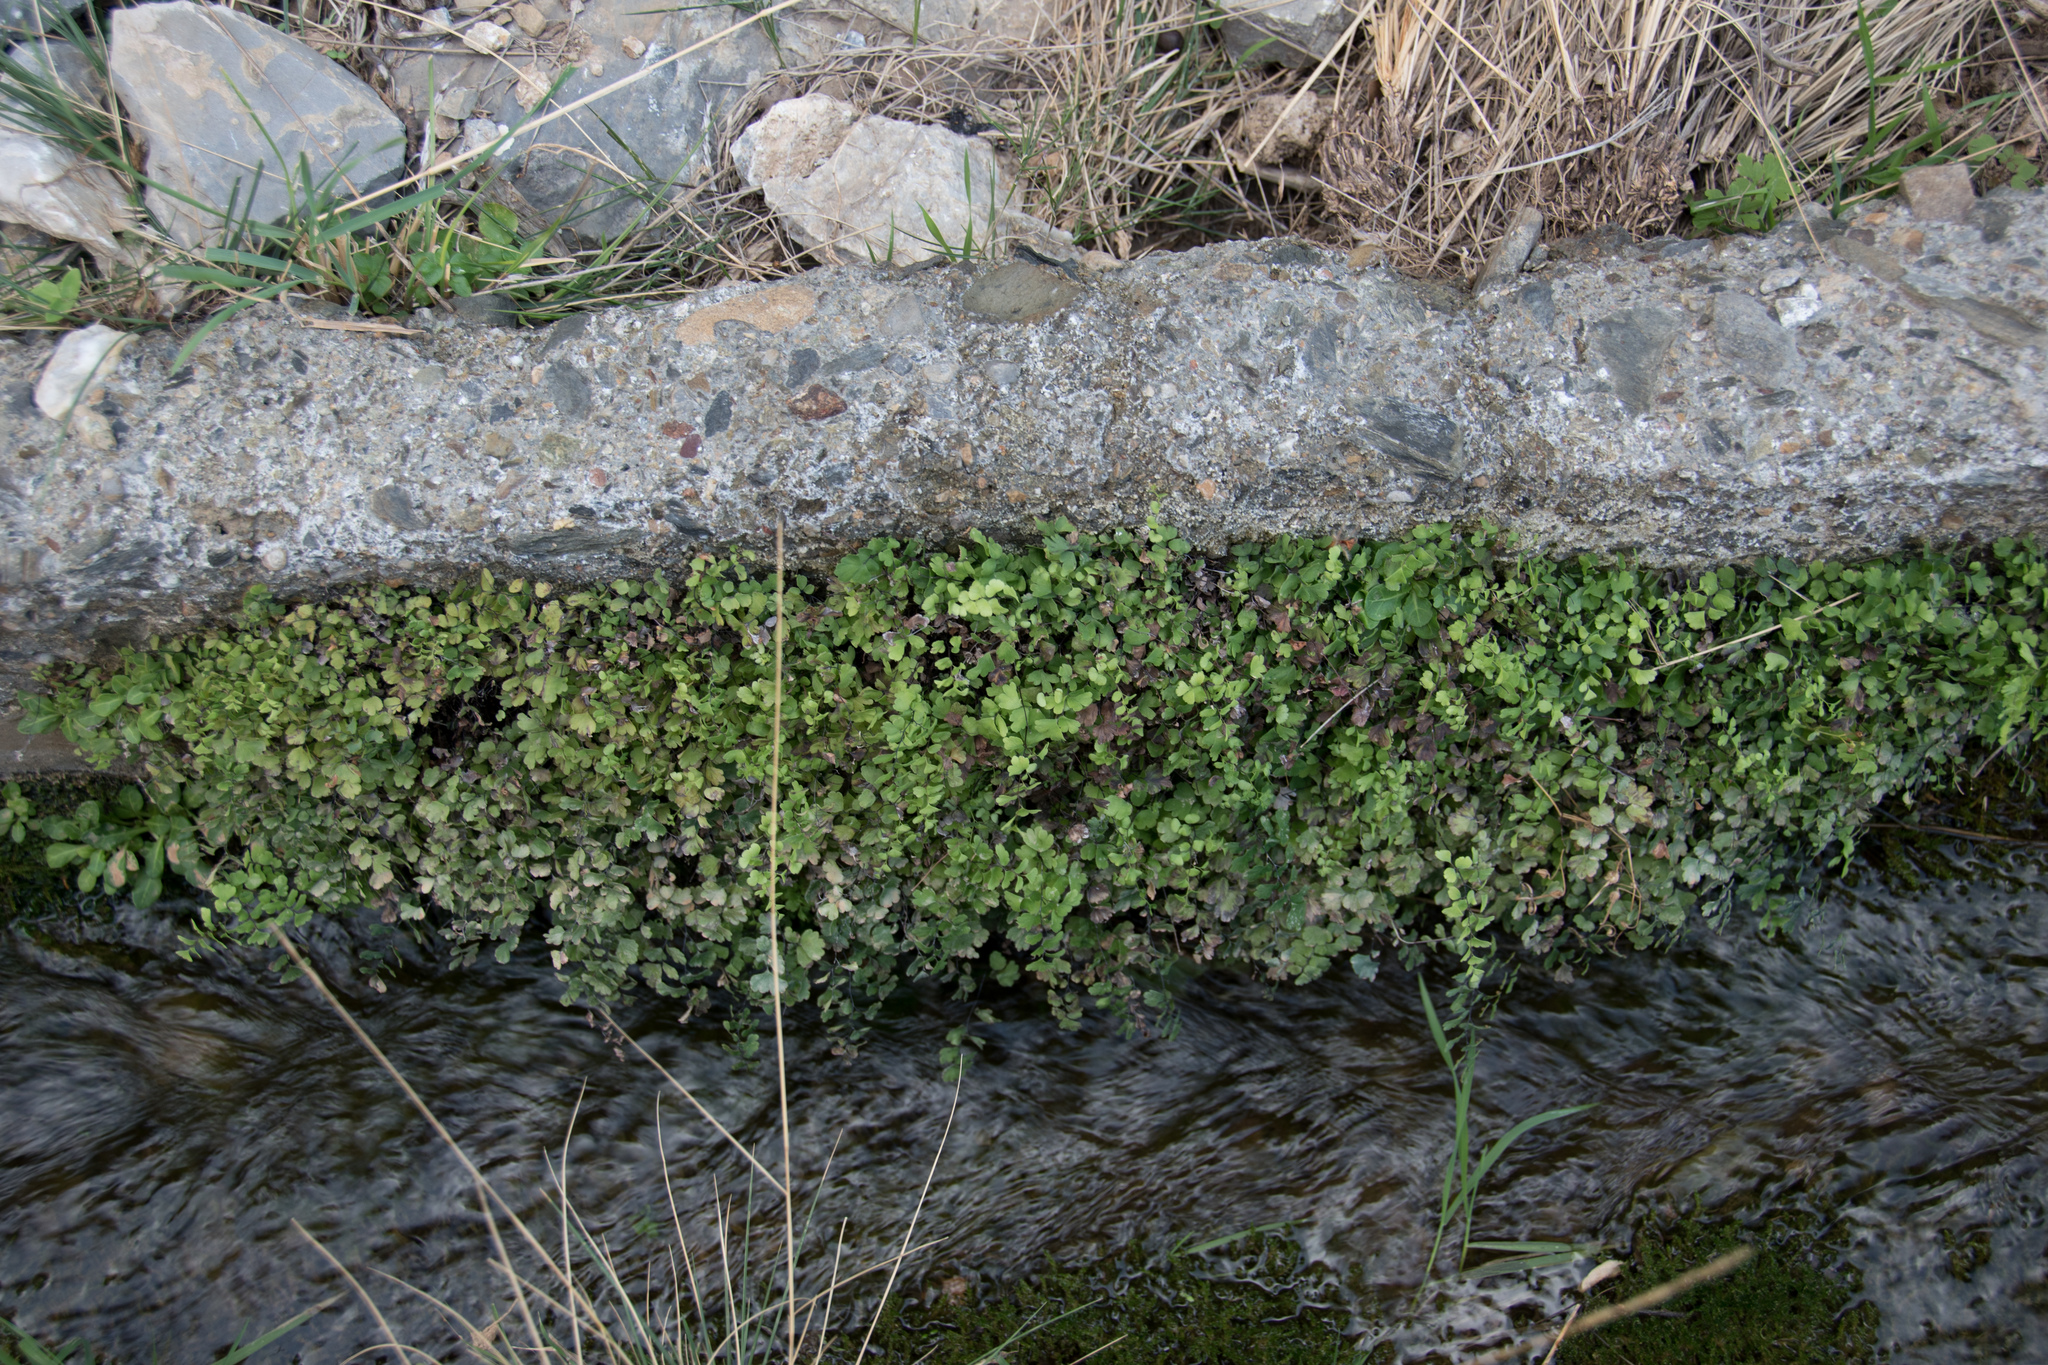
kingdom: Plantae
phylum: Tracheophyta
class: Polypodiopsida
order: Polypodiales
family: Pteridaceae
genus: Adiantum
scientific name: Adiantum capillus-veneris
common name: Maidenhair fern
